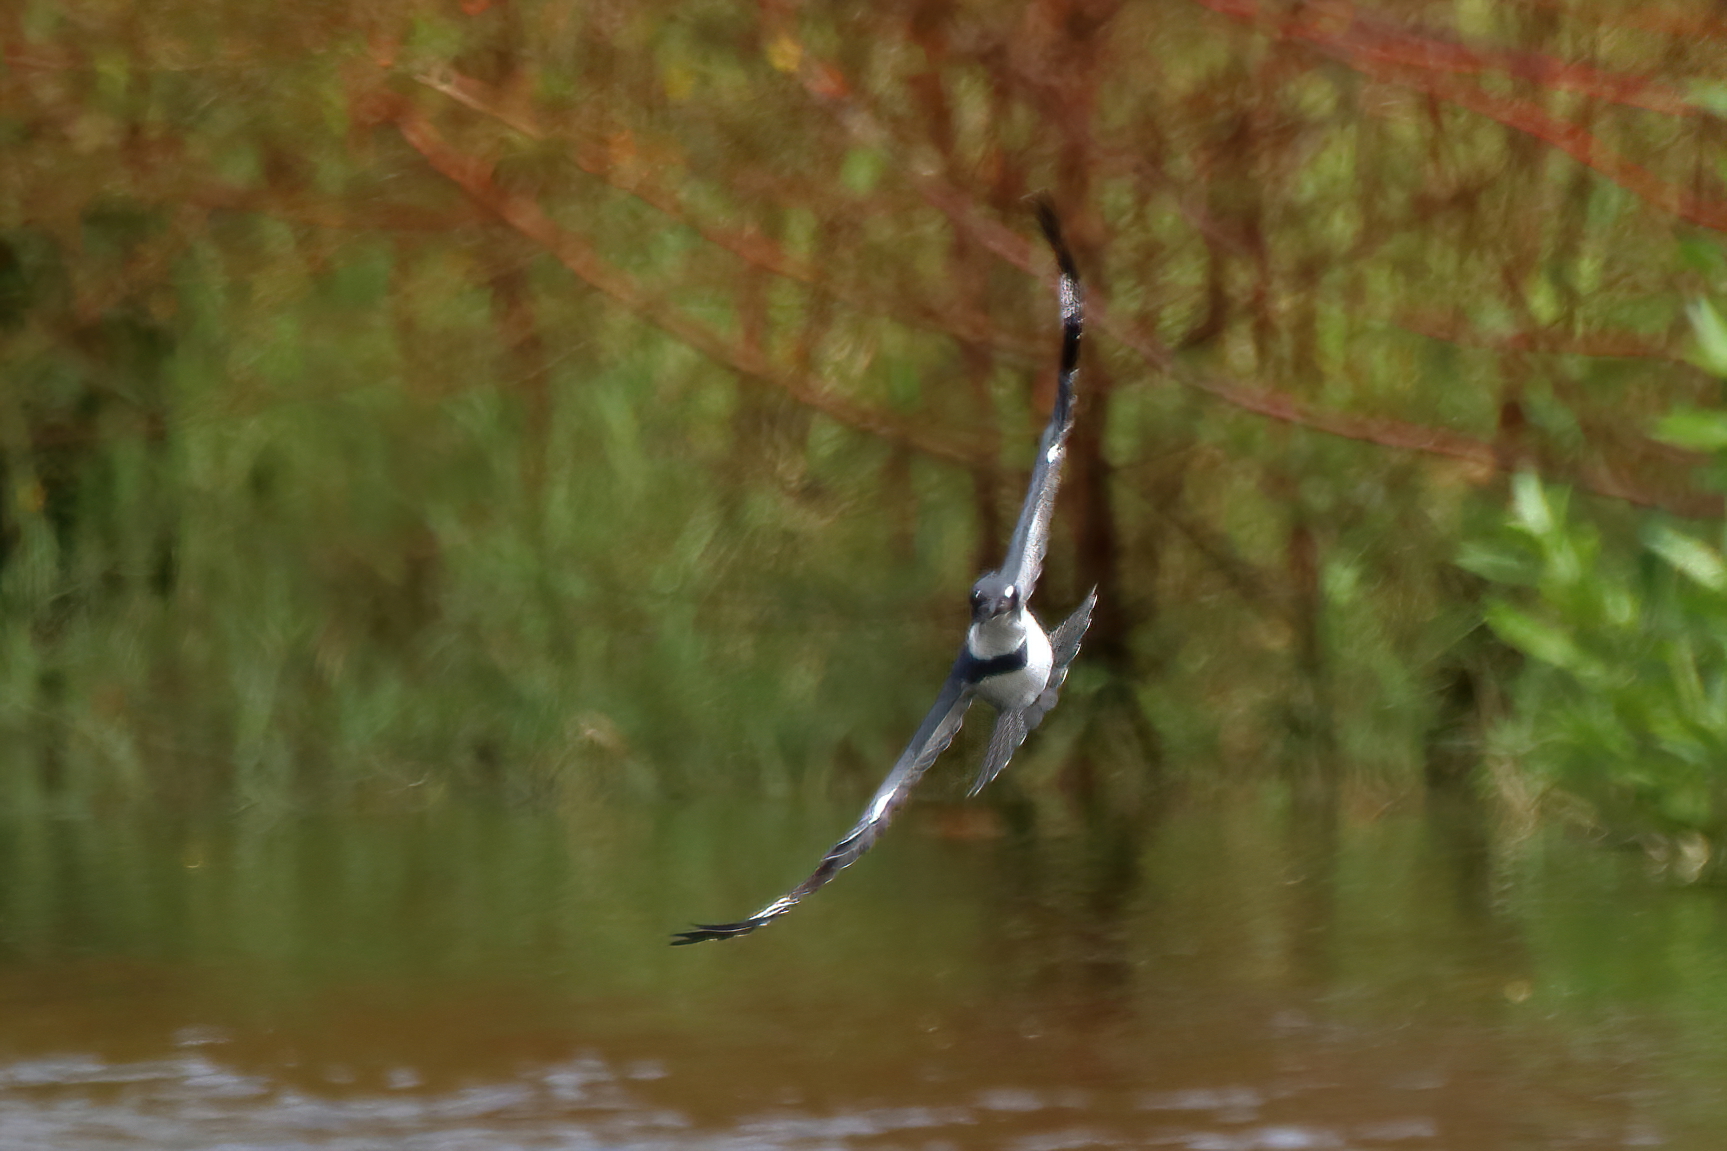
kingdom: Animalia
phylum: Chordata
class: Aves
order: Coraciiformes
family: Alcedinidae
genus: Megaceryle
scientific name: Megaceryle alcyon
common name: Belted kingfisher
